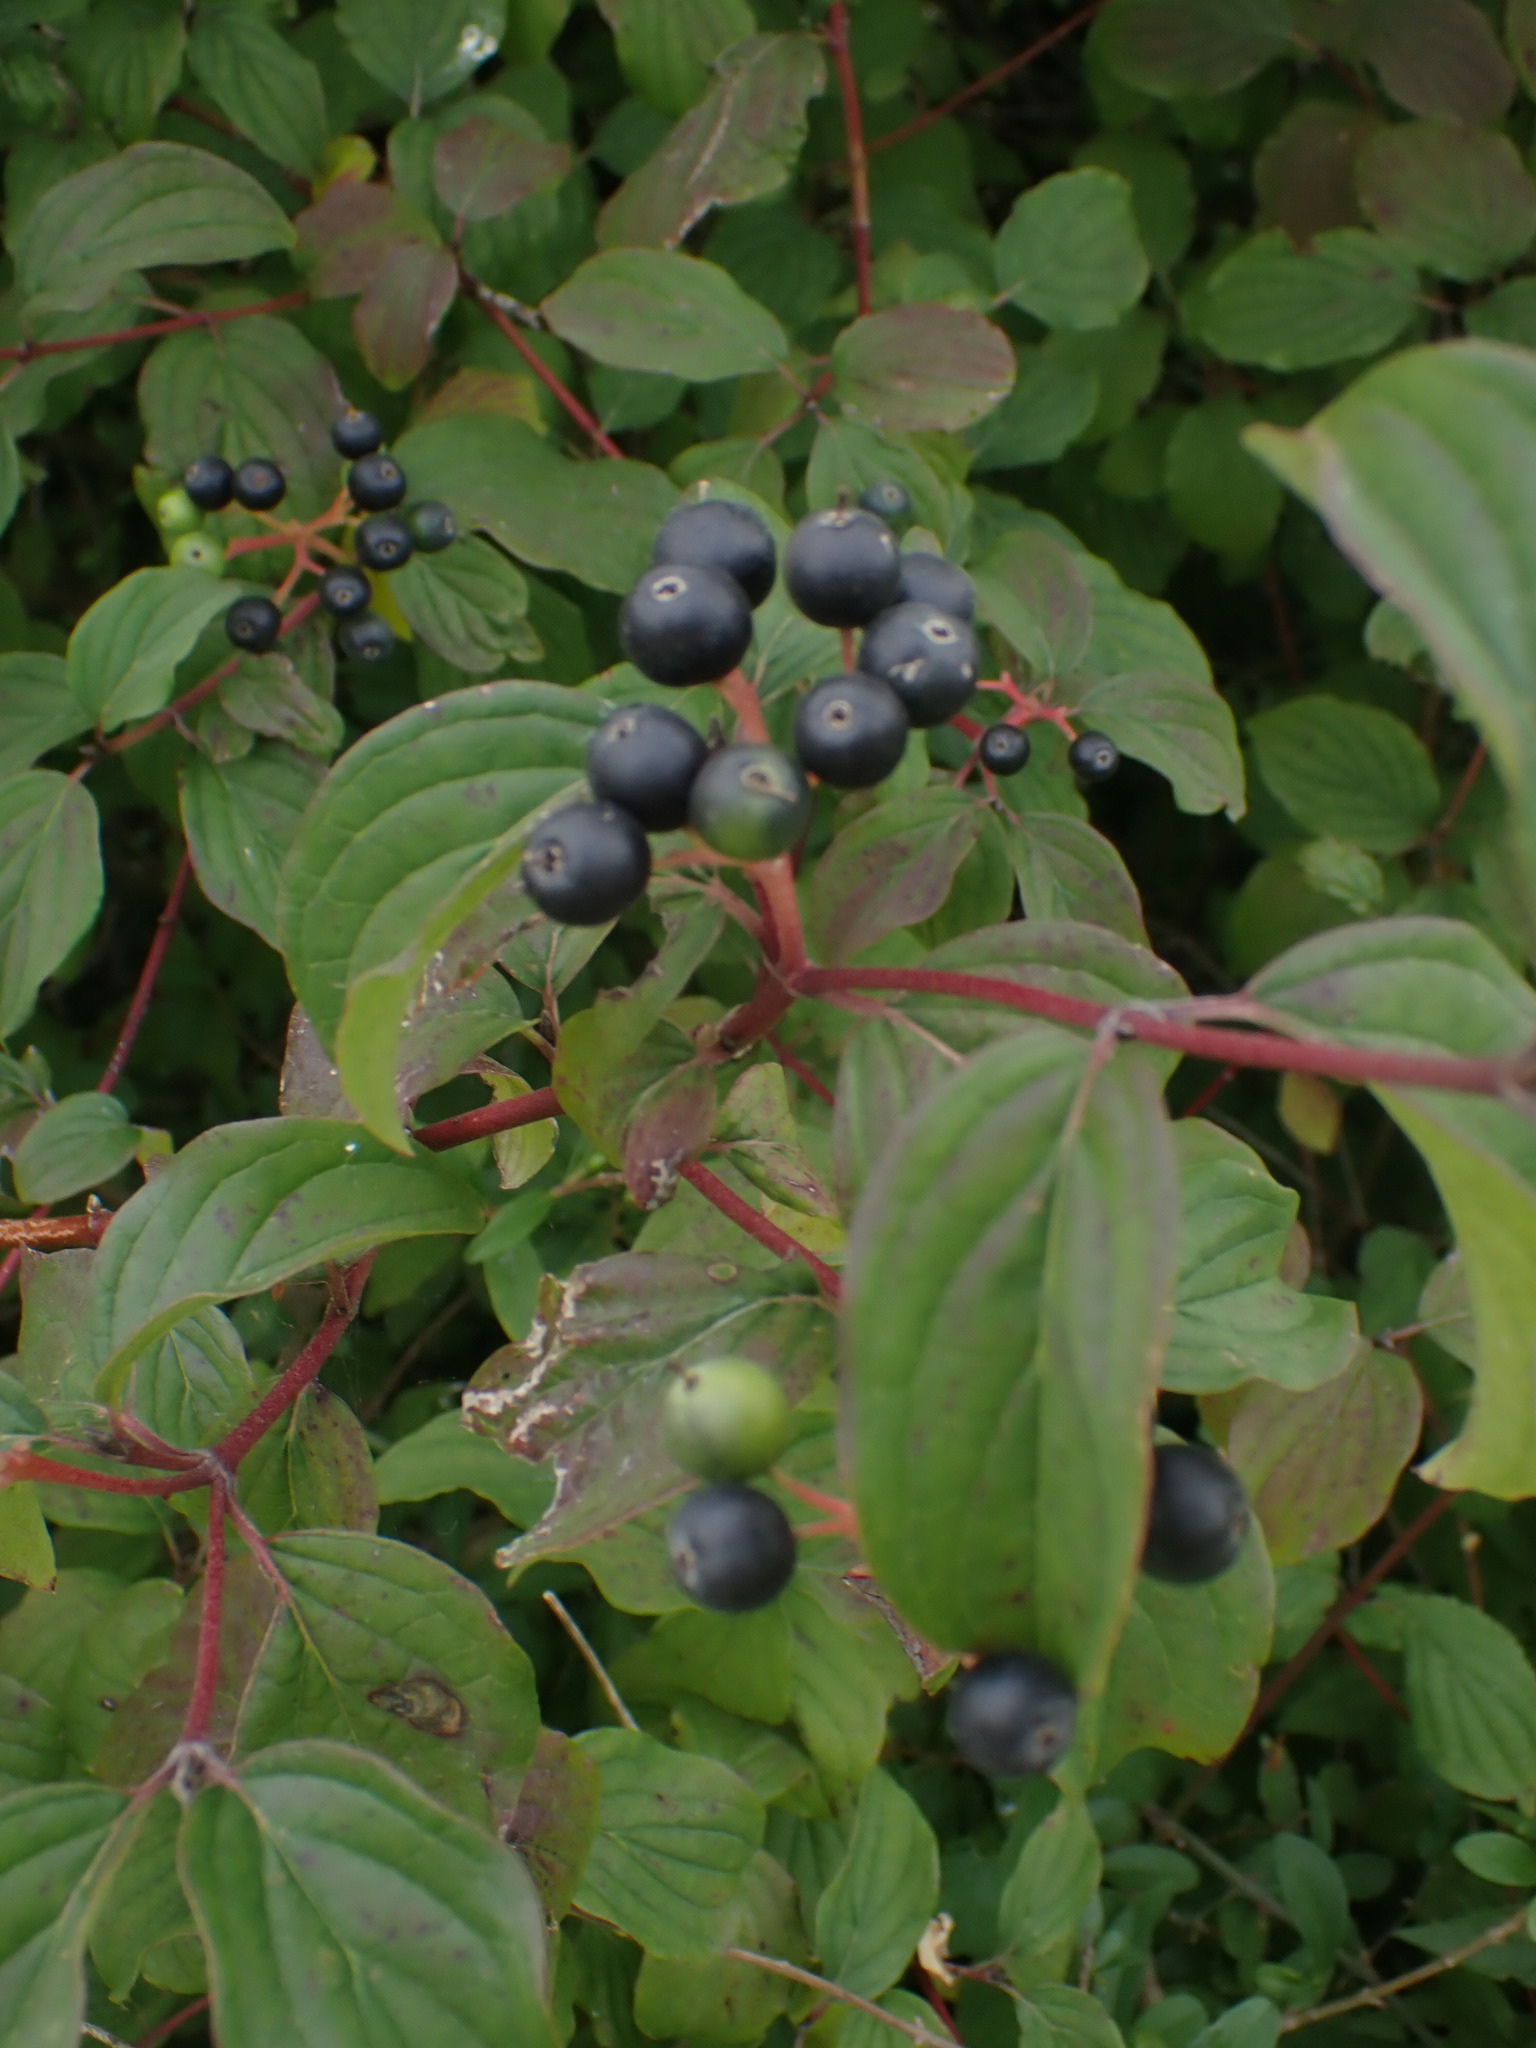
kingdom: Plantae
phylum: Tracheophyta
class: Magnoliopsida
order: Cornales
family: Cornaceae
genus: Cornus
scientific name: Cornus sanguinea
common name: Dogwood
